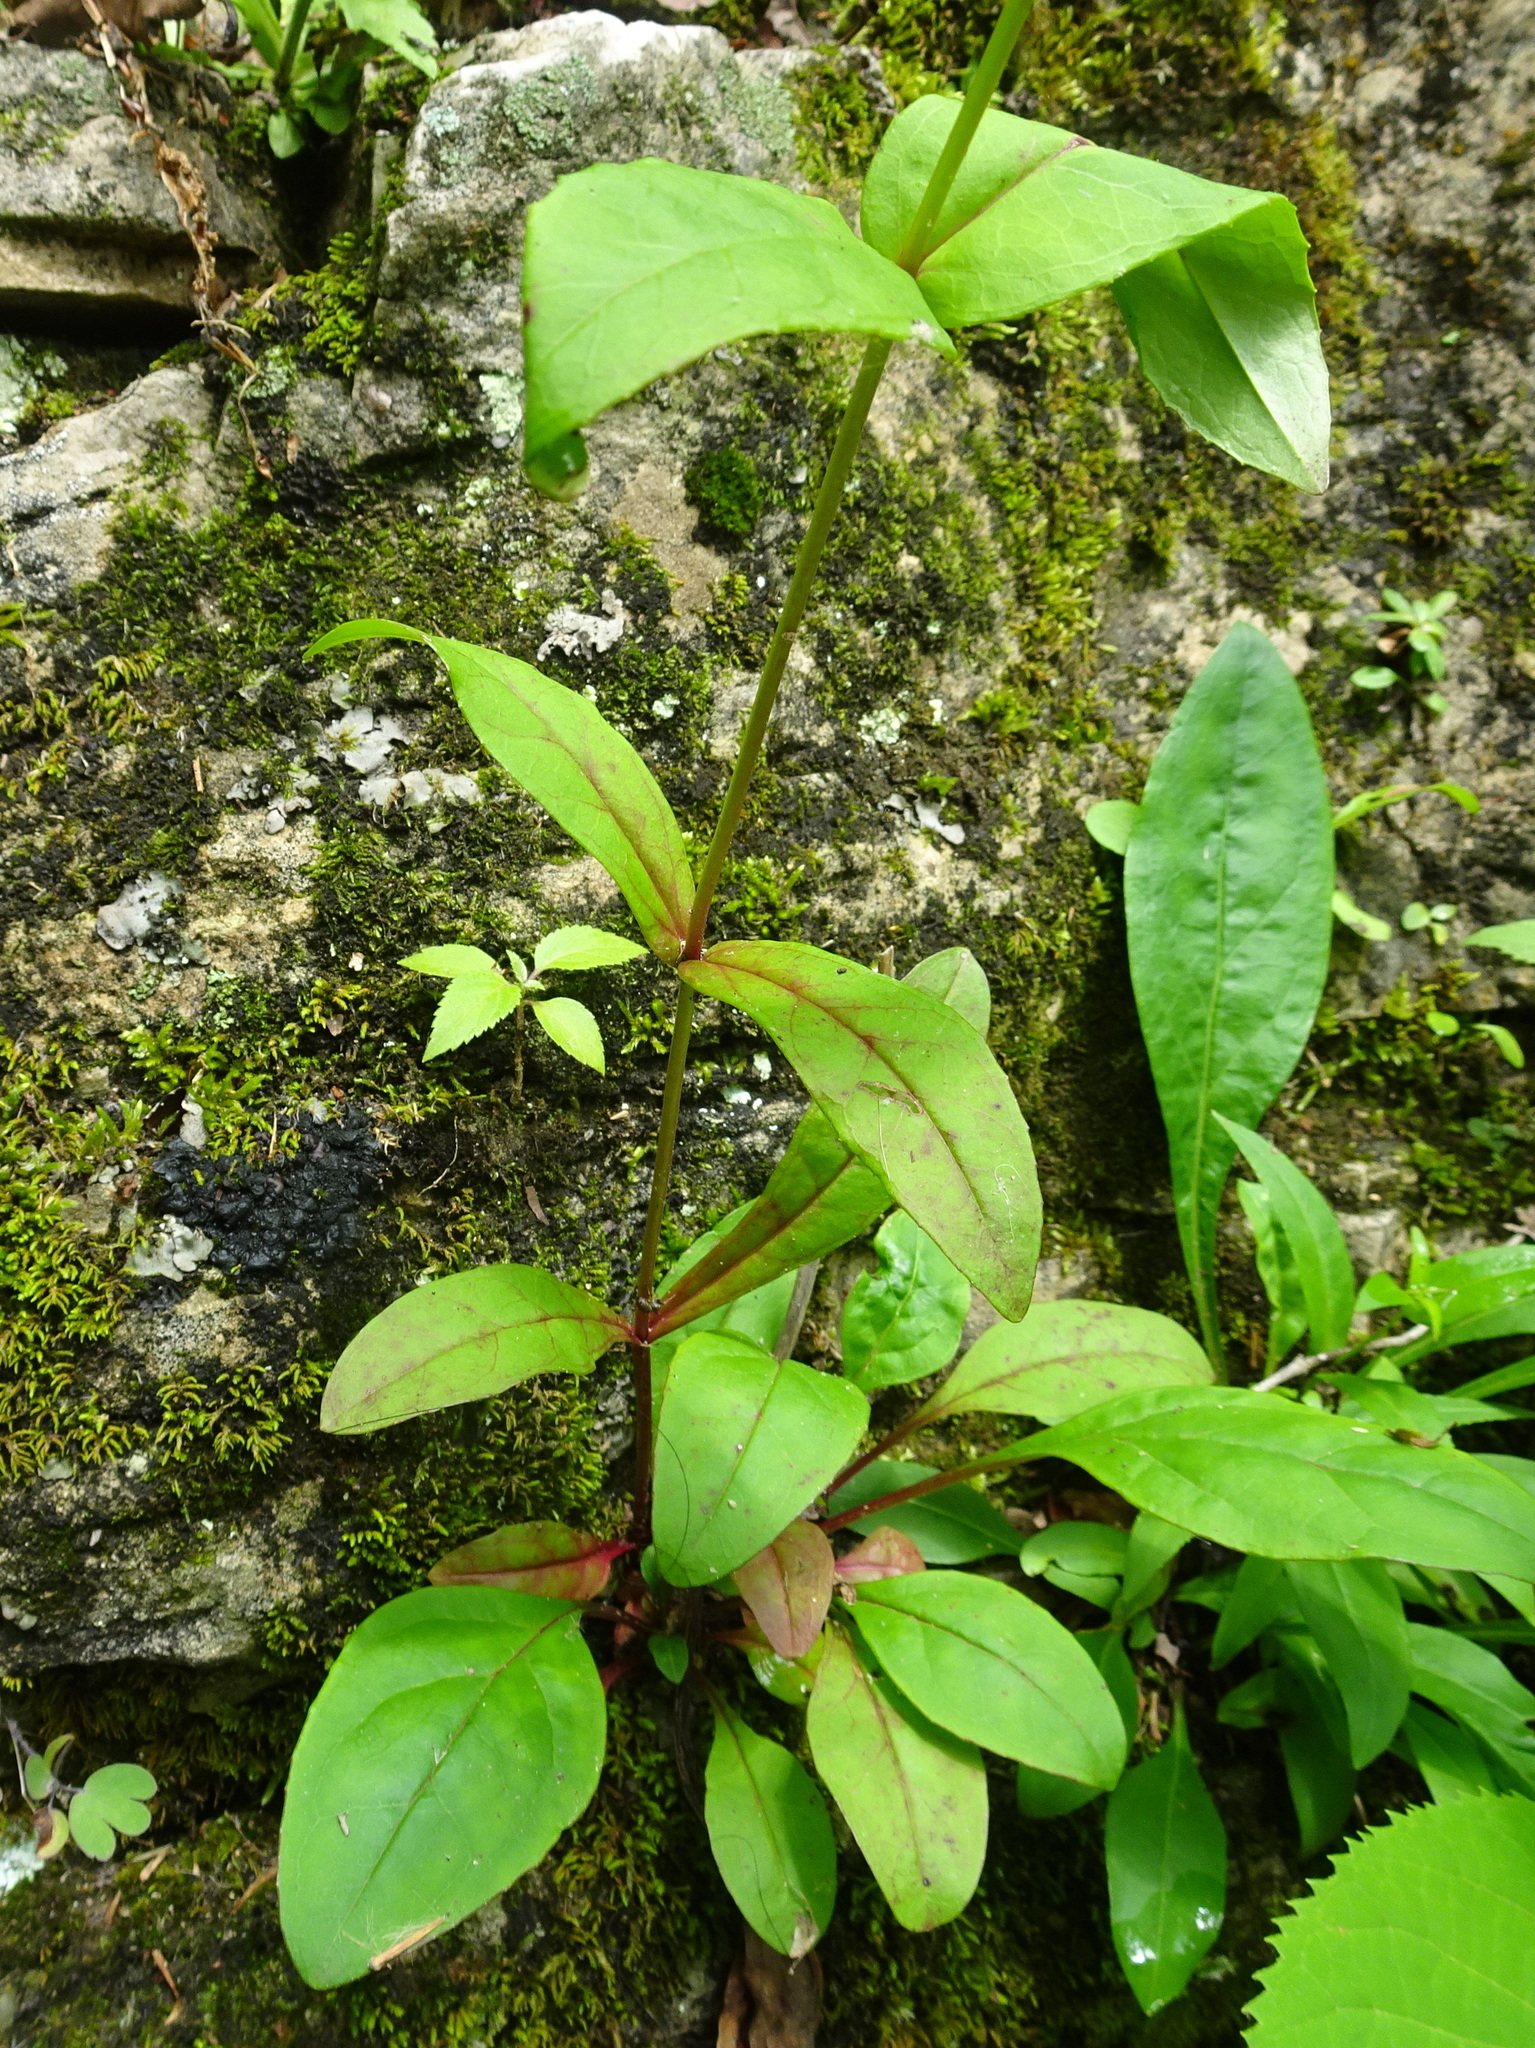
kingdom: Plantae
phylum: Tracheophyta
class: Magnoliopsida
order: Lamiales
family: Plantaginaceae
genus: Penstemon
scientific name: Penstemon digitalis
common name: Foxglove beardtongue
